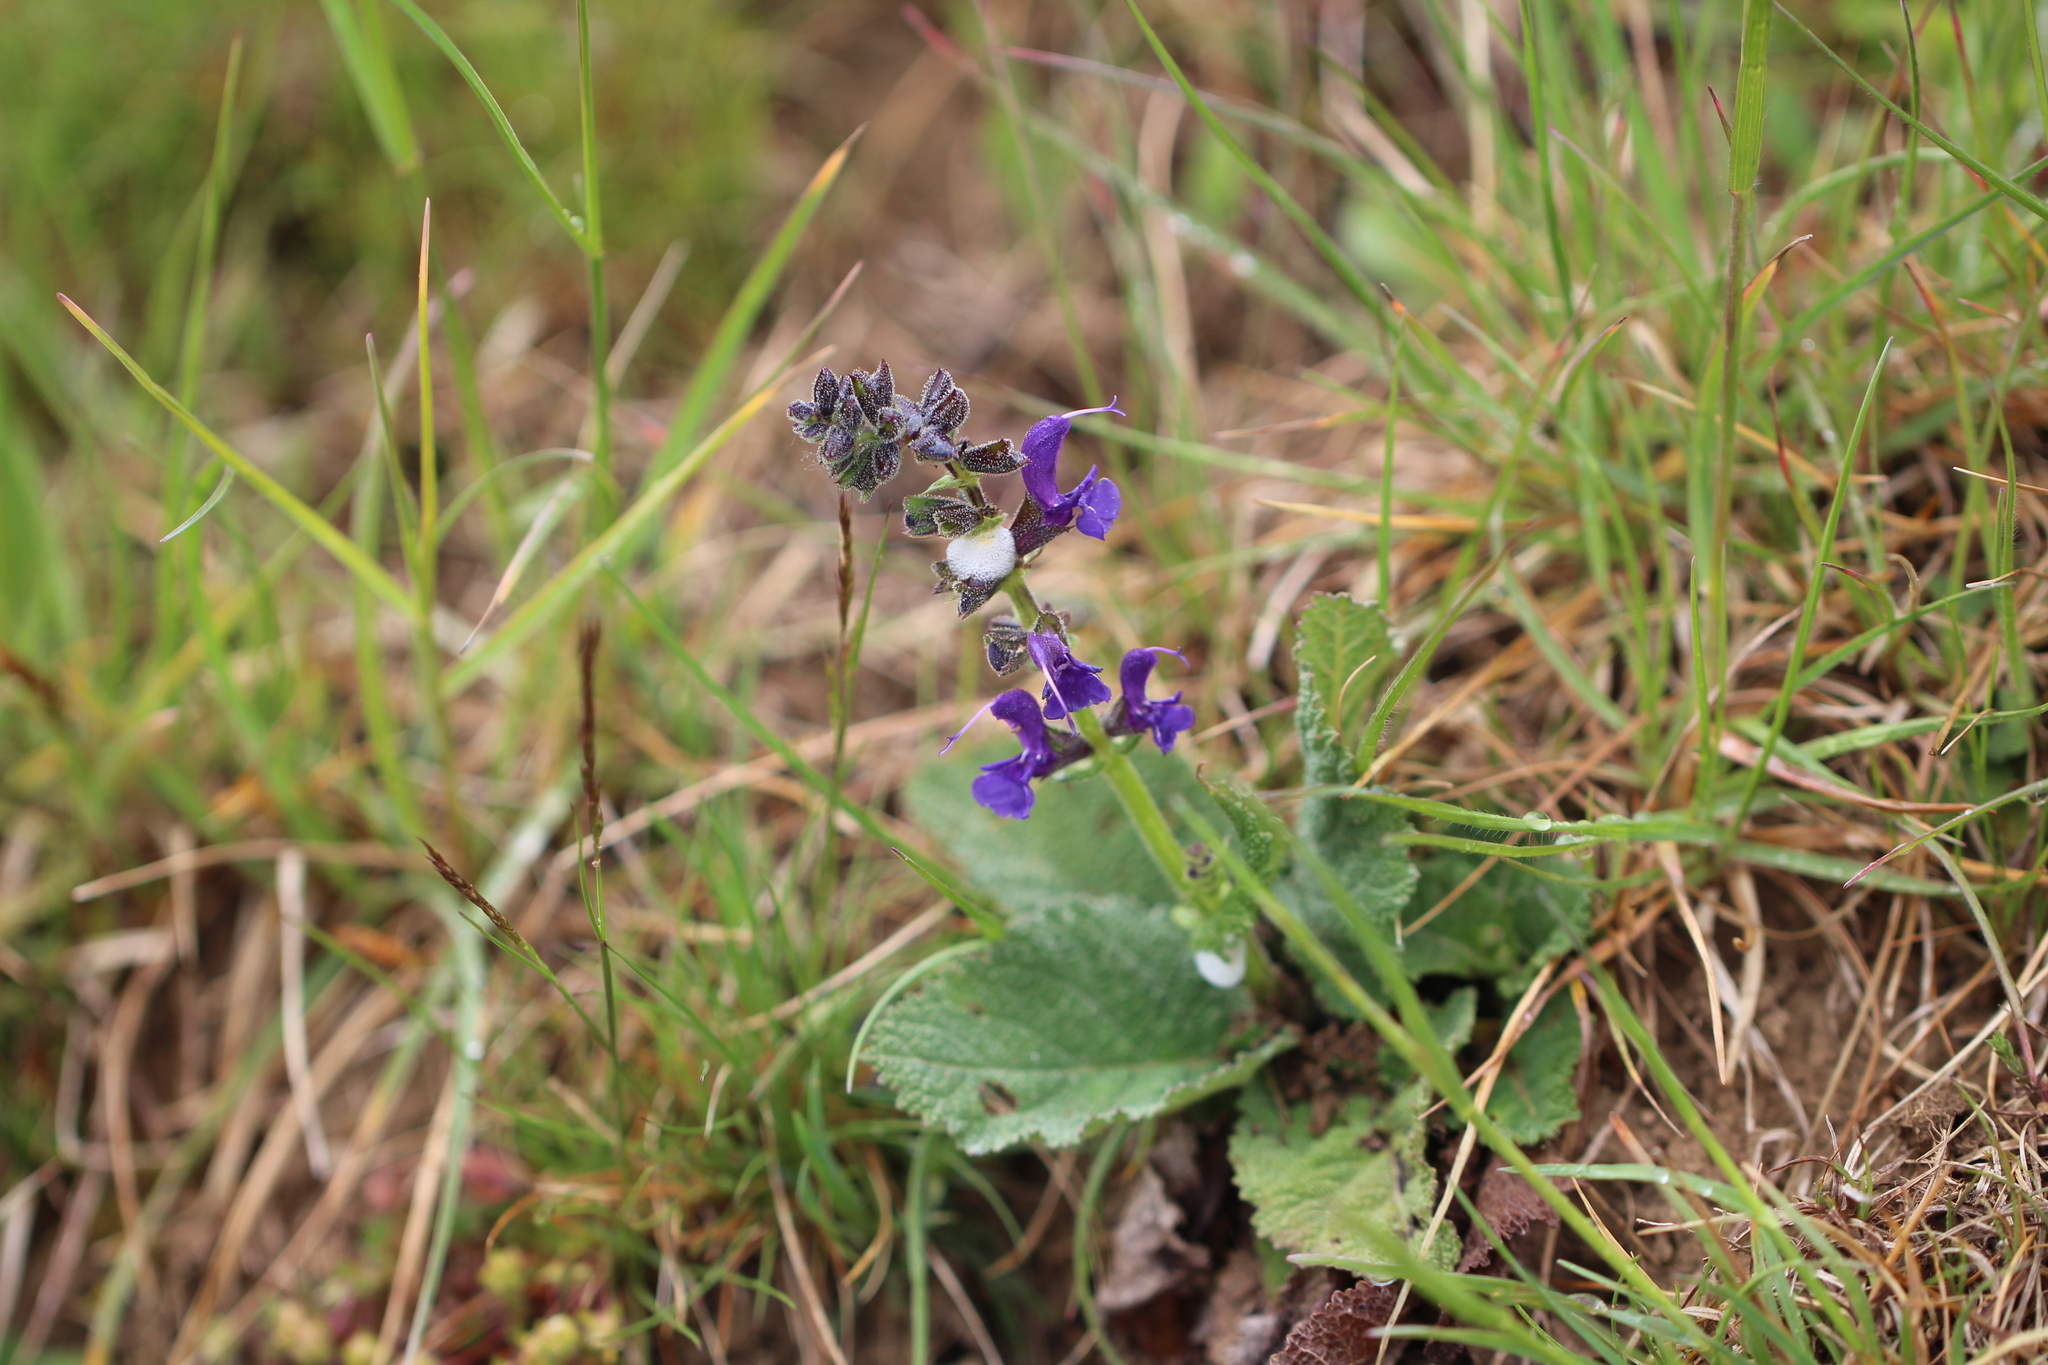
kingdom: Plantae
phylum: Tracheophyta
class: Magnoliopsida
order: Lamiales
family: Lamiaceae
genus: Salvia
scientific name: Salvia pratensis
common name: Meadow sage
